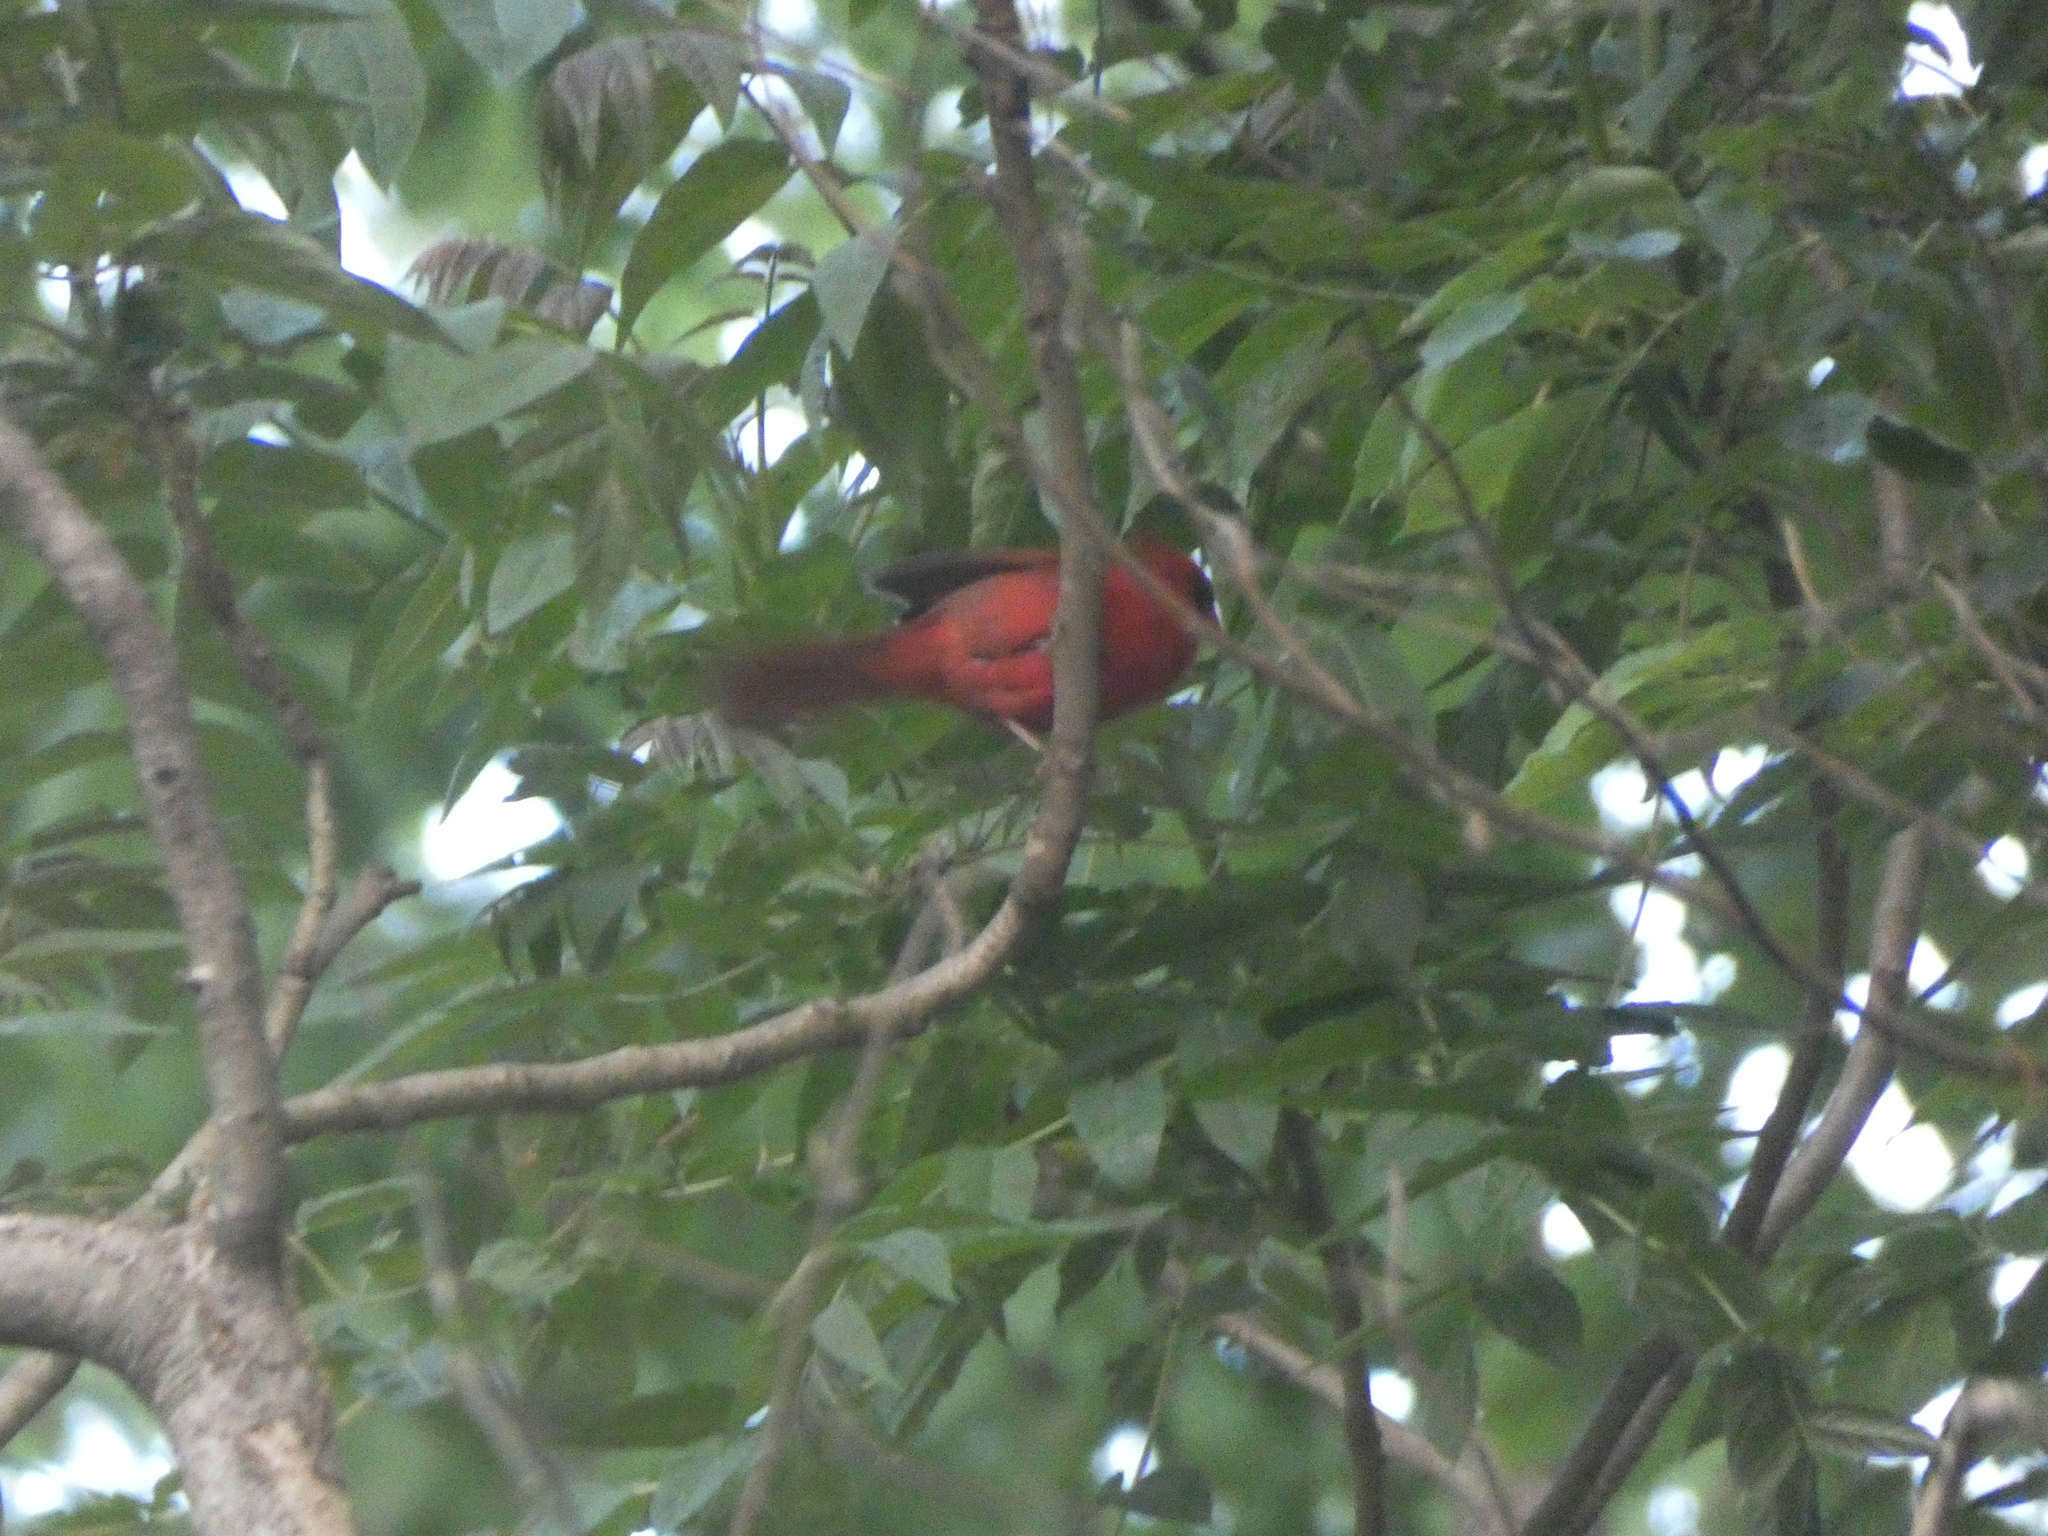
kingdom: Animalia
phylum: Chordata
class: Aves
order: Passeriformes
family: Cardinalidae
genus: Cardinalis
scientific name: Cardinalis cardinalis
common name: Northern cardinal
